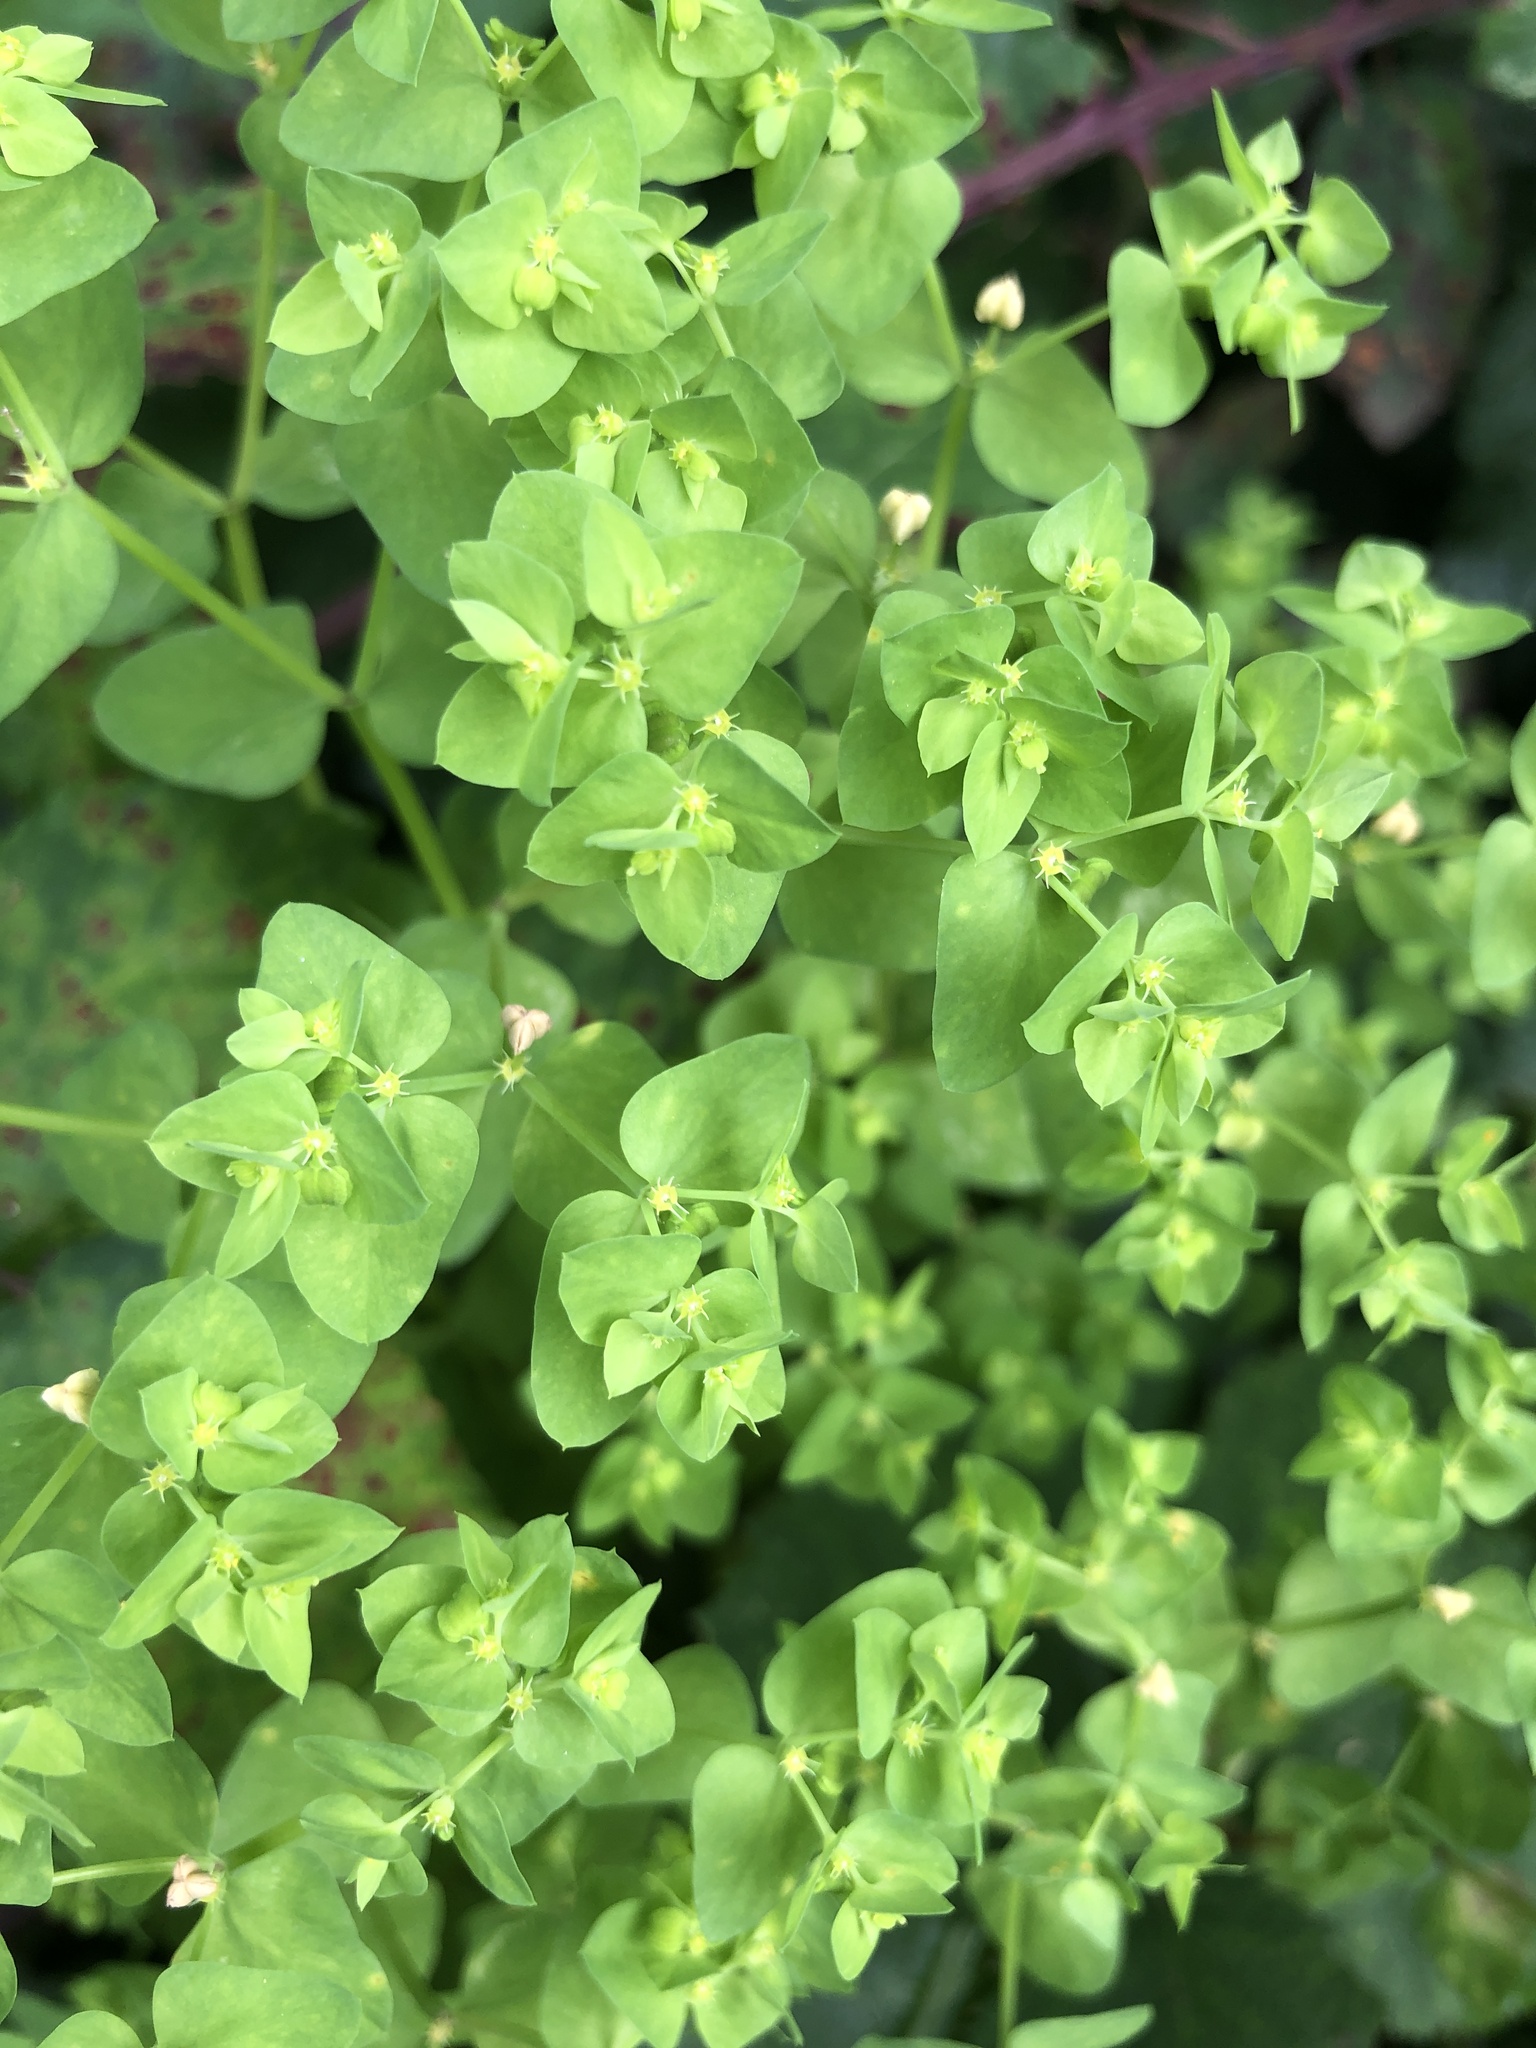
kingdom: Plantae
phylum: Tracheophyta
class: Magnoliopsida
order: Malpighiales
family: Euphorbiaceae
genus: Euphorbia
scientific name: Euphorbia peplus
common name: Petty spurge
